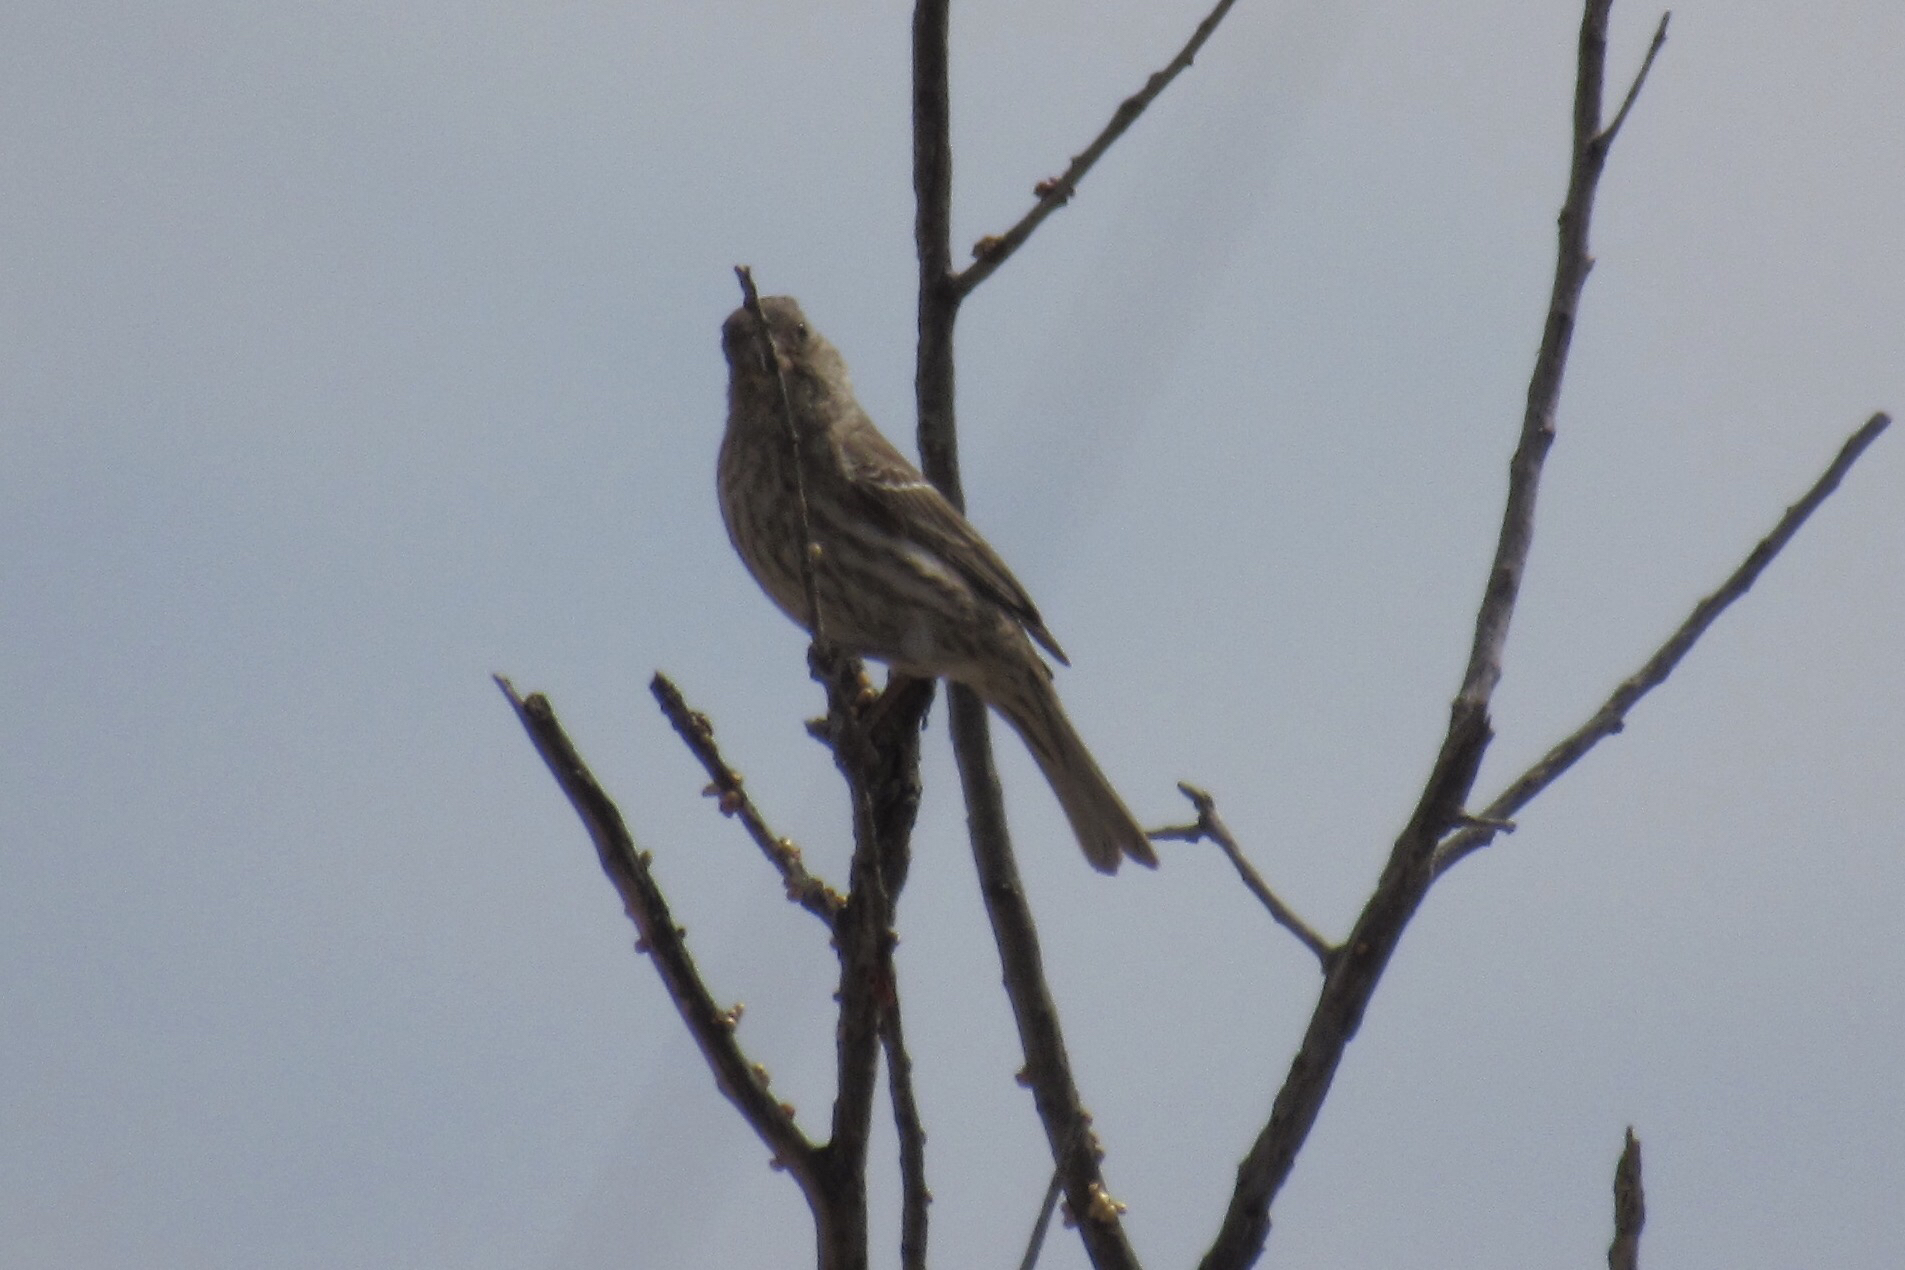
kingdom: Animalia
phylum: Chordata
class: Aves
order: Passeriformes
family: Fringillidae
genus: Haemorhous
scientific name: Haemorhous mexicanus
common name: House finch
